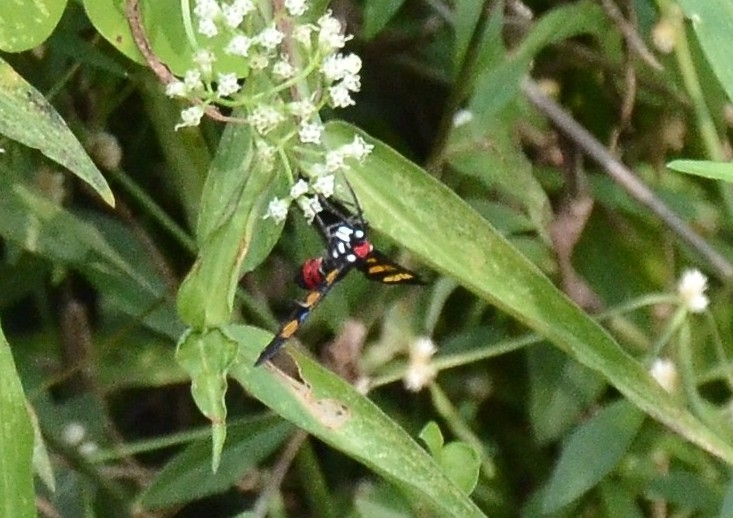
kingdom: Animalia
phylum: Arthropoda
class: Insecta
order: Lepidoptera
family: Erebidae
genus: Euchromia
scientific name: Euchromia polymena
